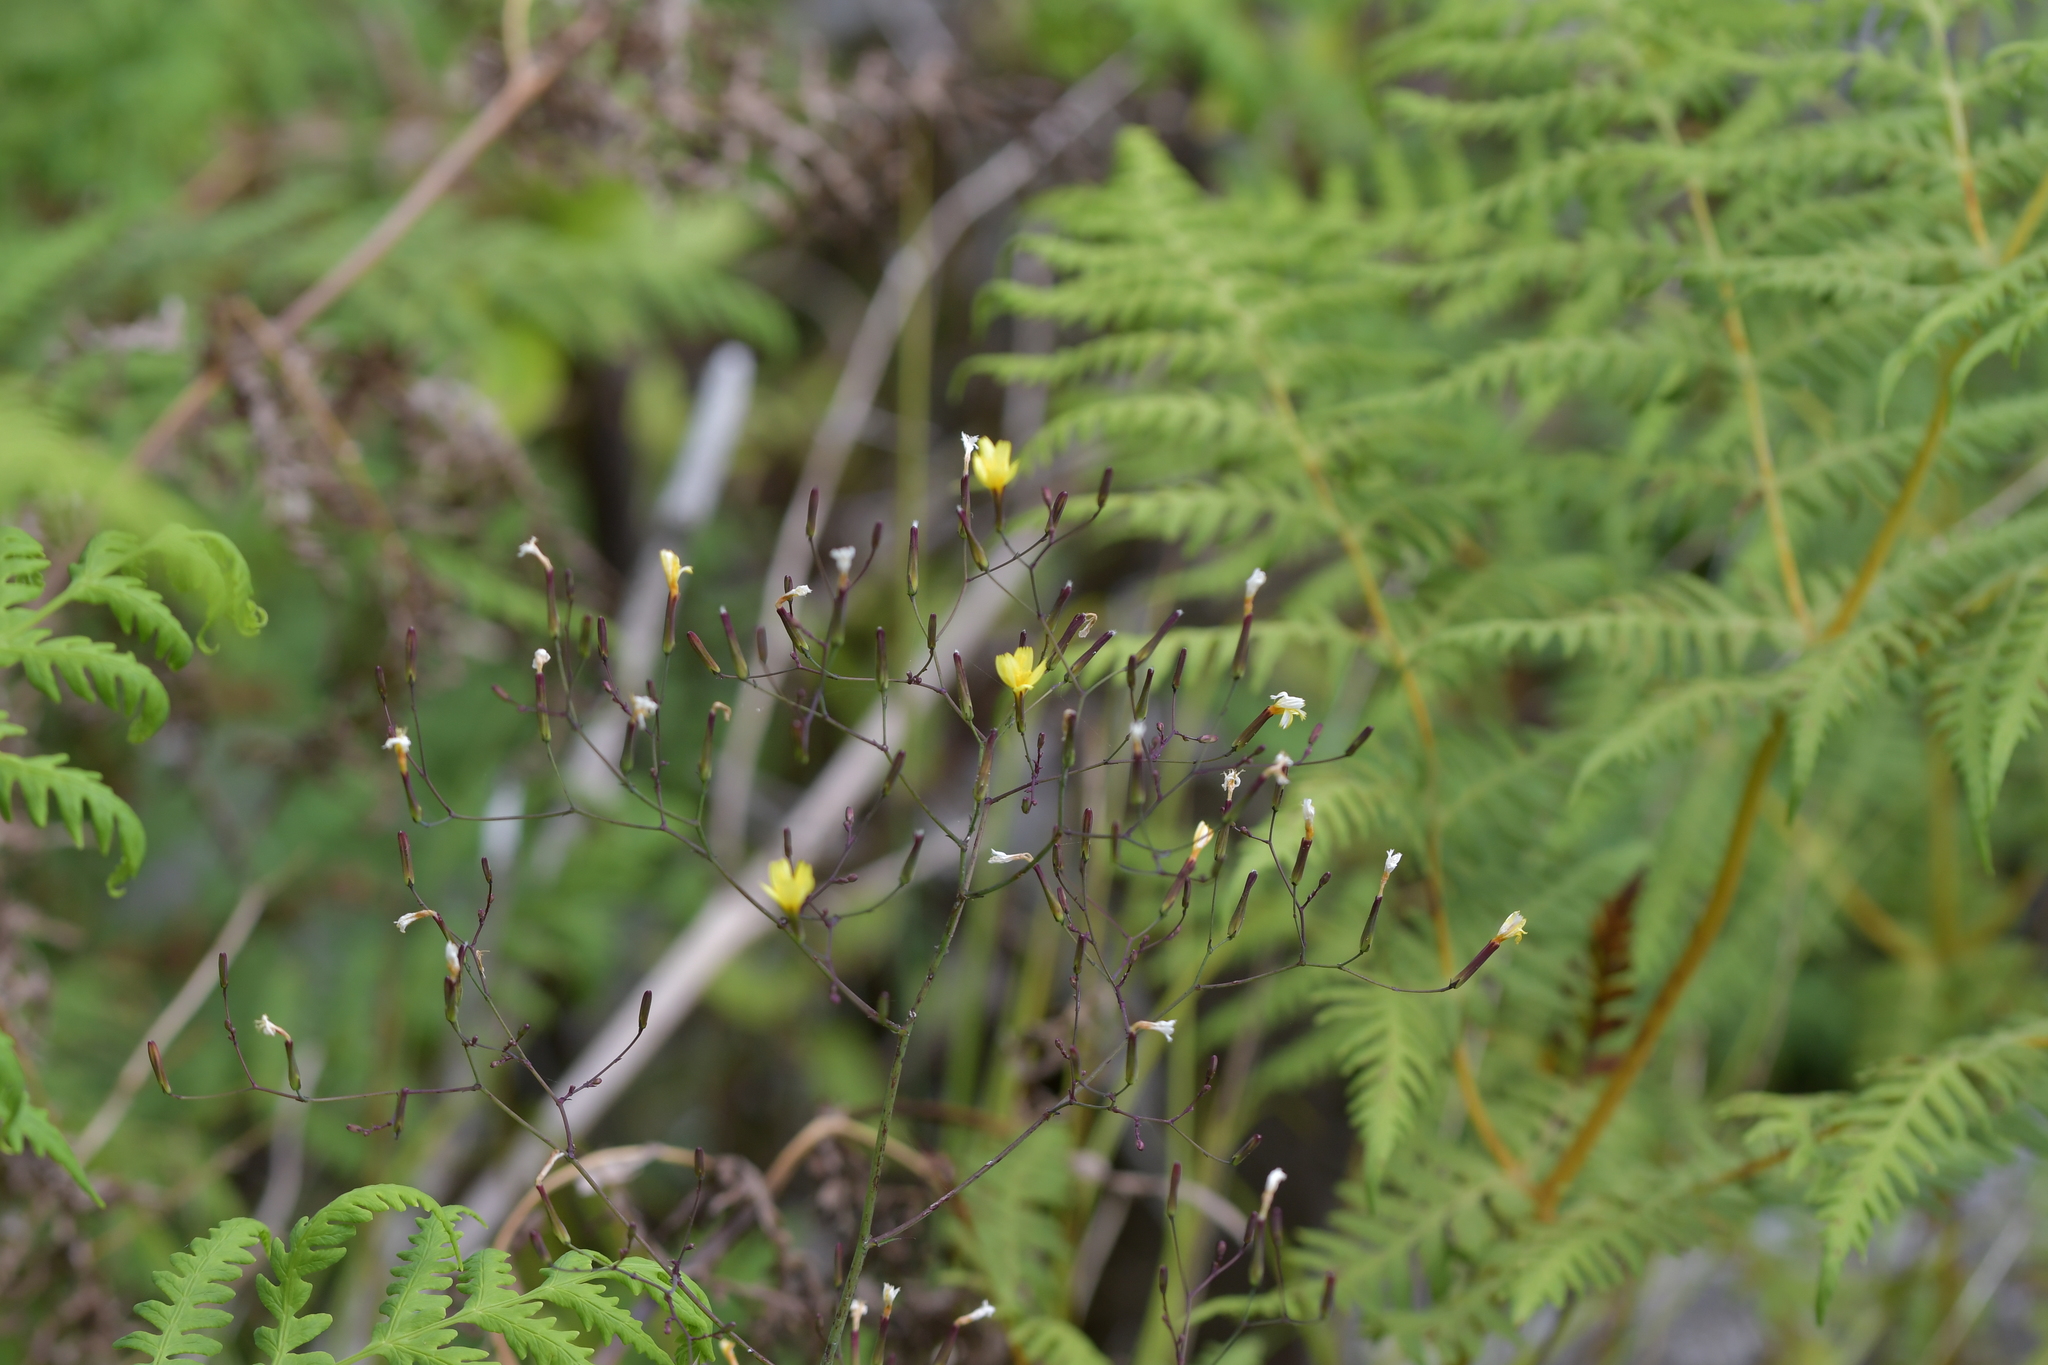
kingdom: Plantae
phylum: Tracheophyta
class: Magnoliopsida
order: Asterales
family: Asteraceae
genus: Mycelis
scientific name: Mycelis muralis
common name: Wall lettuce
